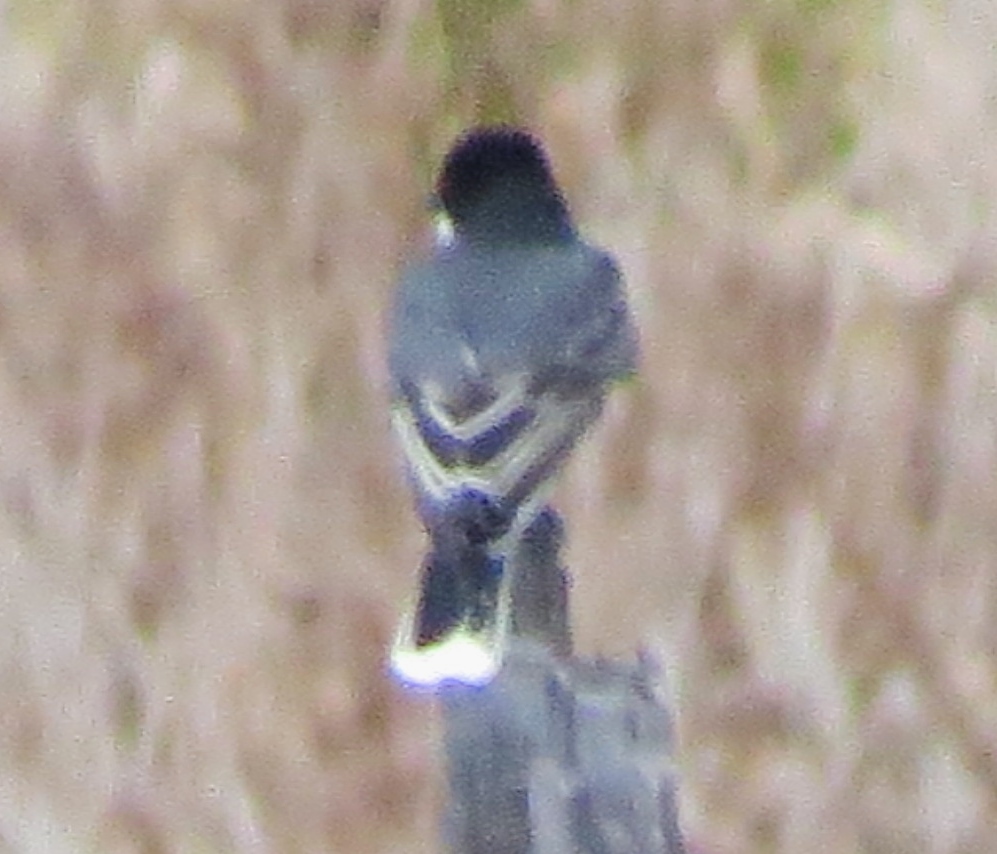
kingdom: Animalia
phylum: Chordata
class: Aves
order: Passeriformes
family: Tyrannidae
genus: Tyrannus
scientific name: Tyrannus tyrannus
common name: Eastern kingbird
